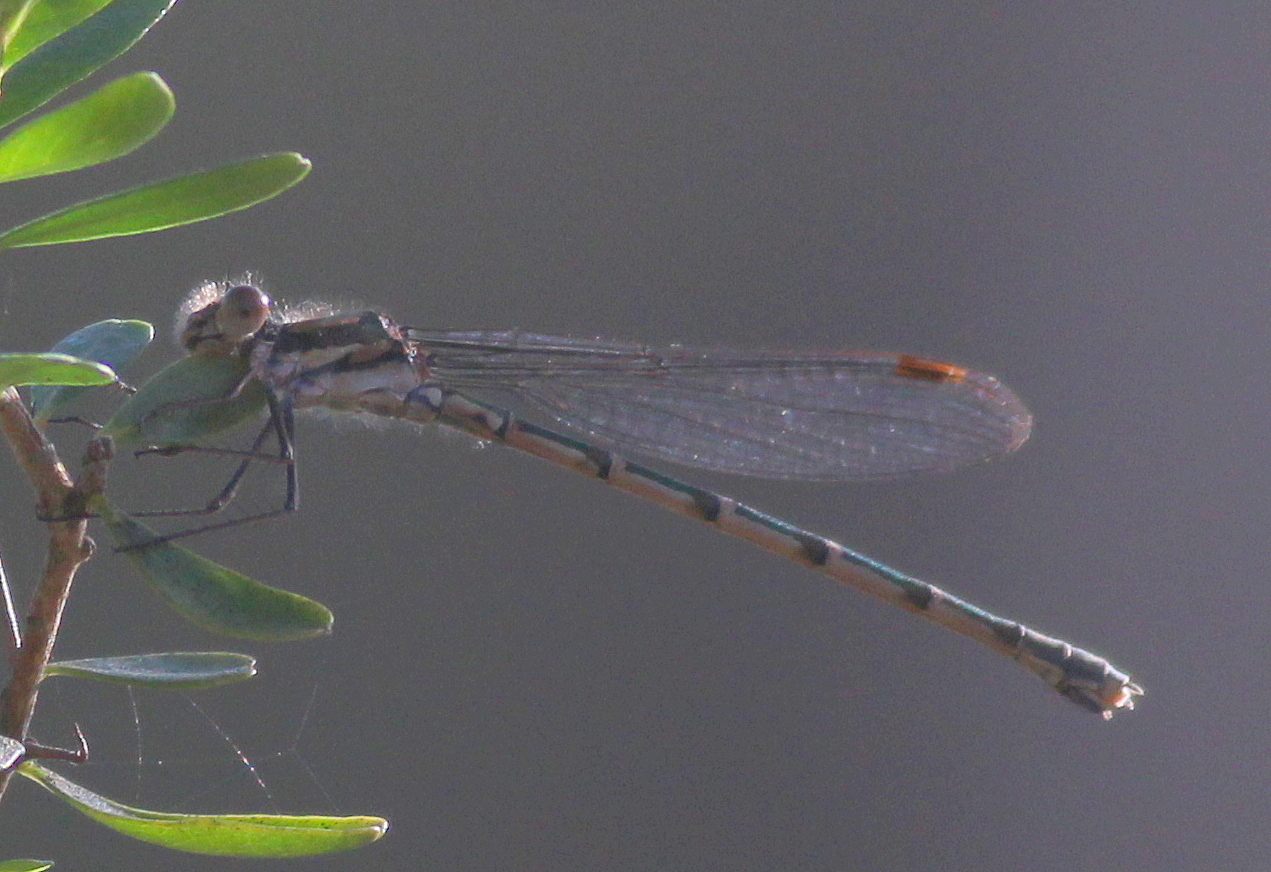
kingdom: Animalia
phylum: Arthropoda
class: Insecta
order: Odonata
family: Lestidae
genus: Austrolestes
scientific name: Austrolestes annulosus
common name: Blue ringtail
